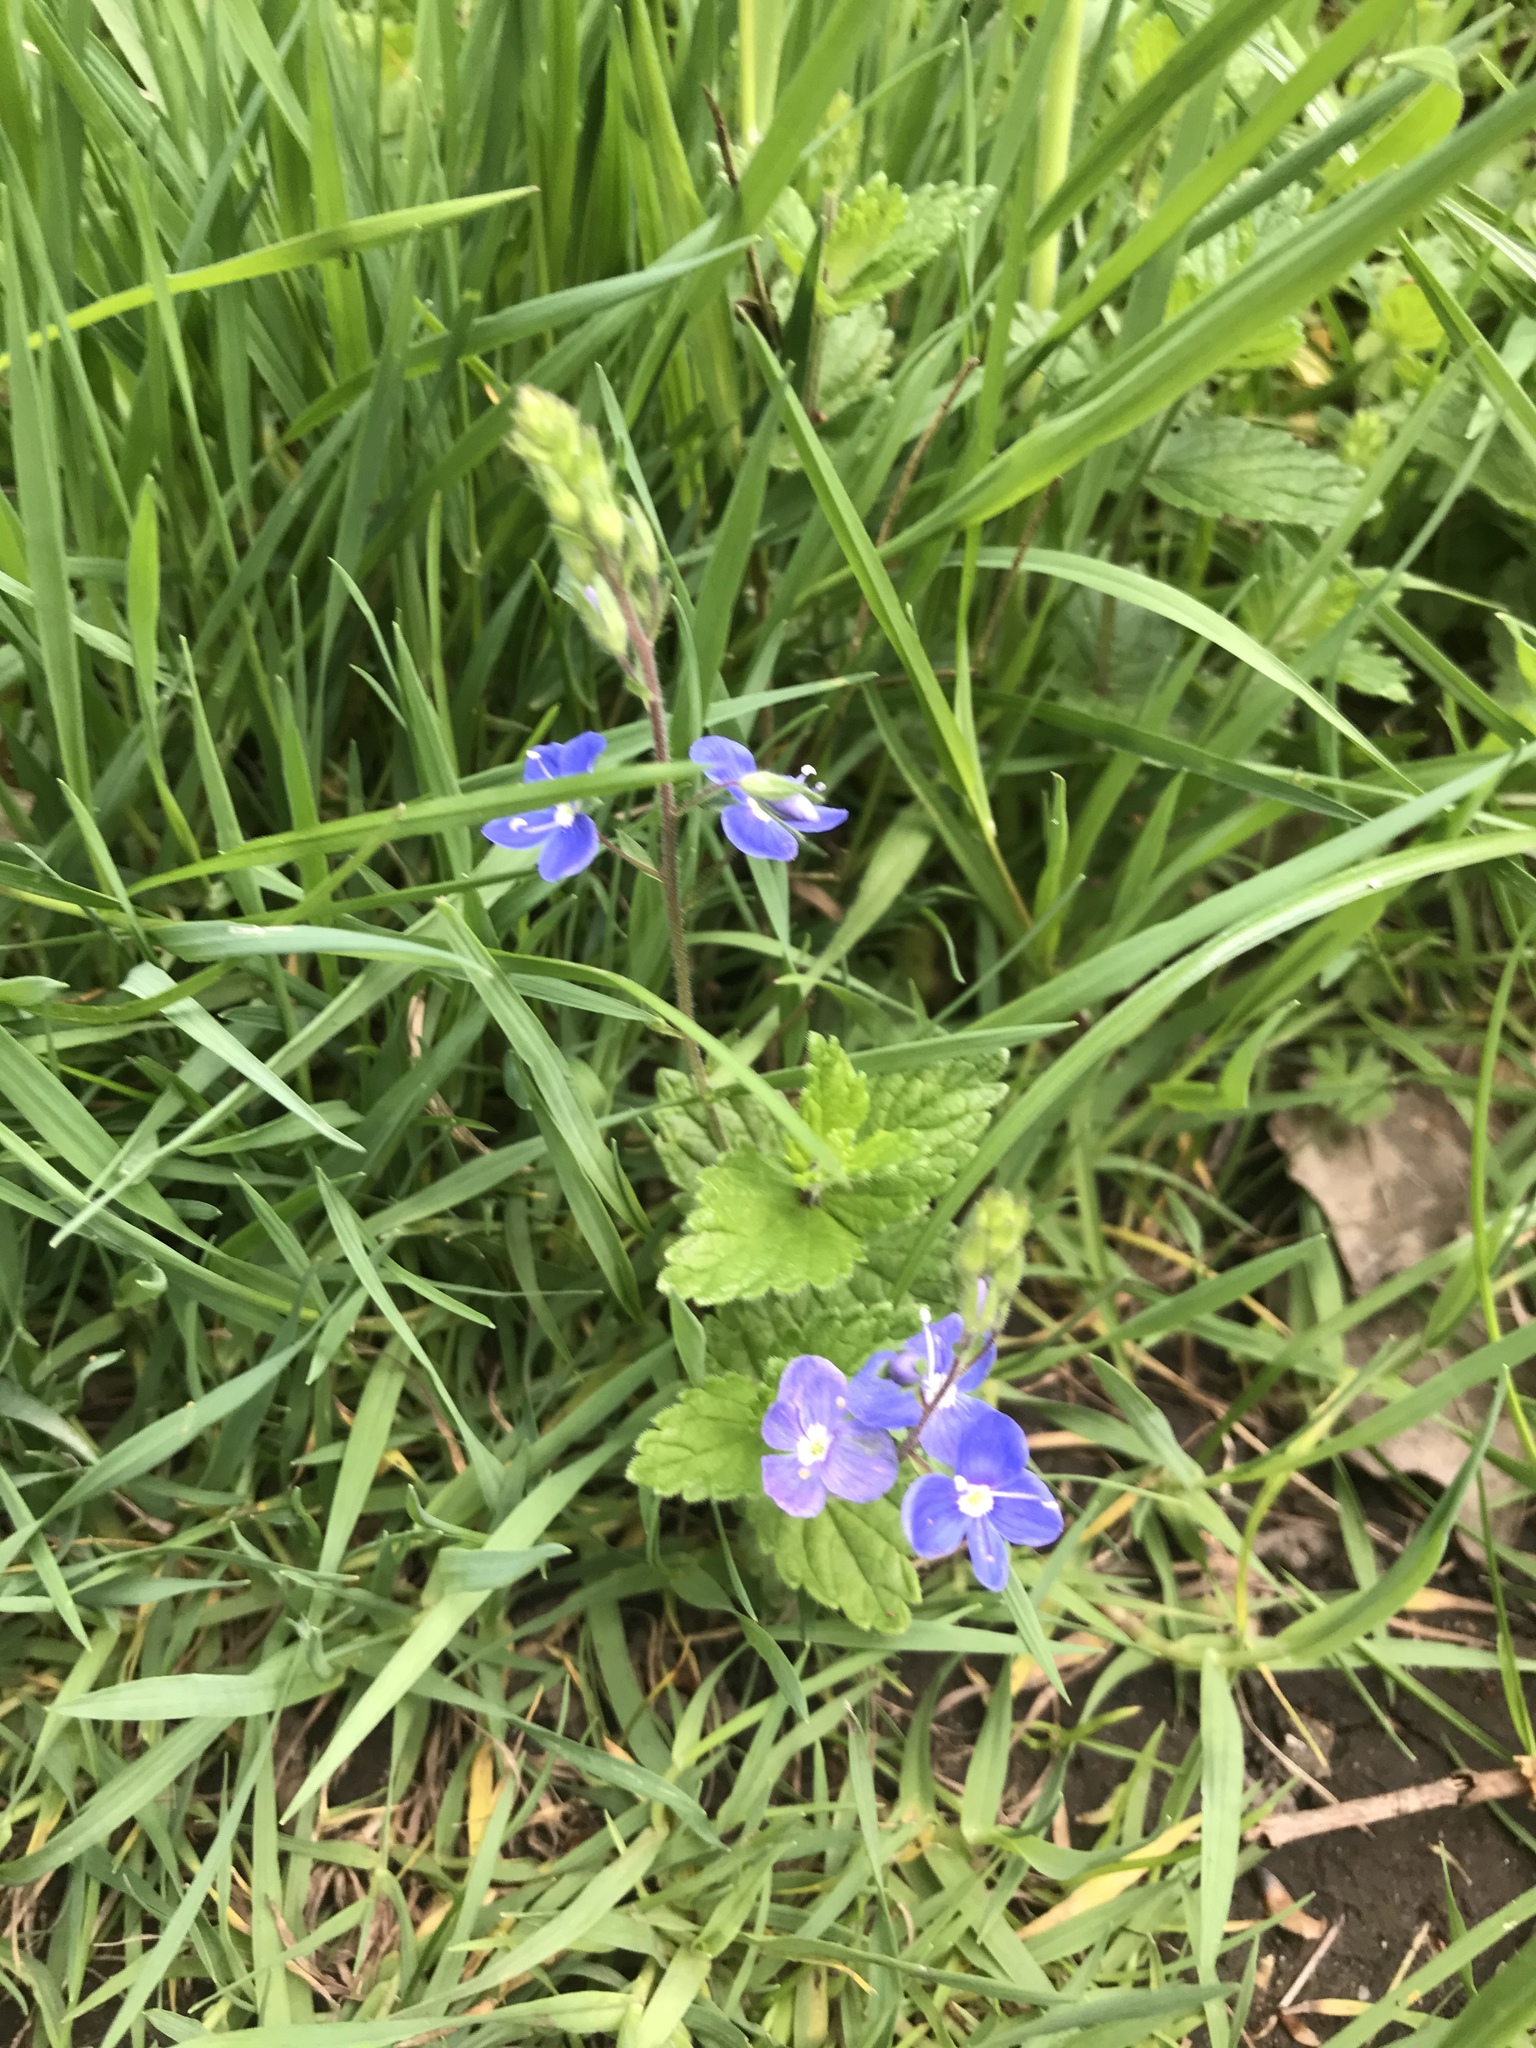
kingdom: Plantae
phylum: Tracheophyta
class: Magnoliopsida
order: Lamiales
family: Plantaginaceae
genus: Veronica
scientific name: Veronica chamaedrys
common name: Germander speedwell
